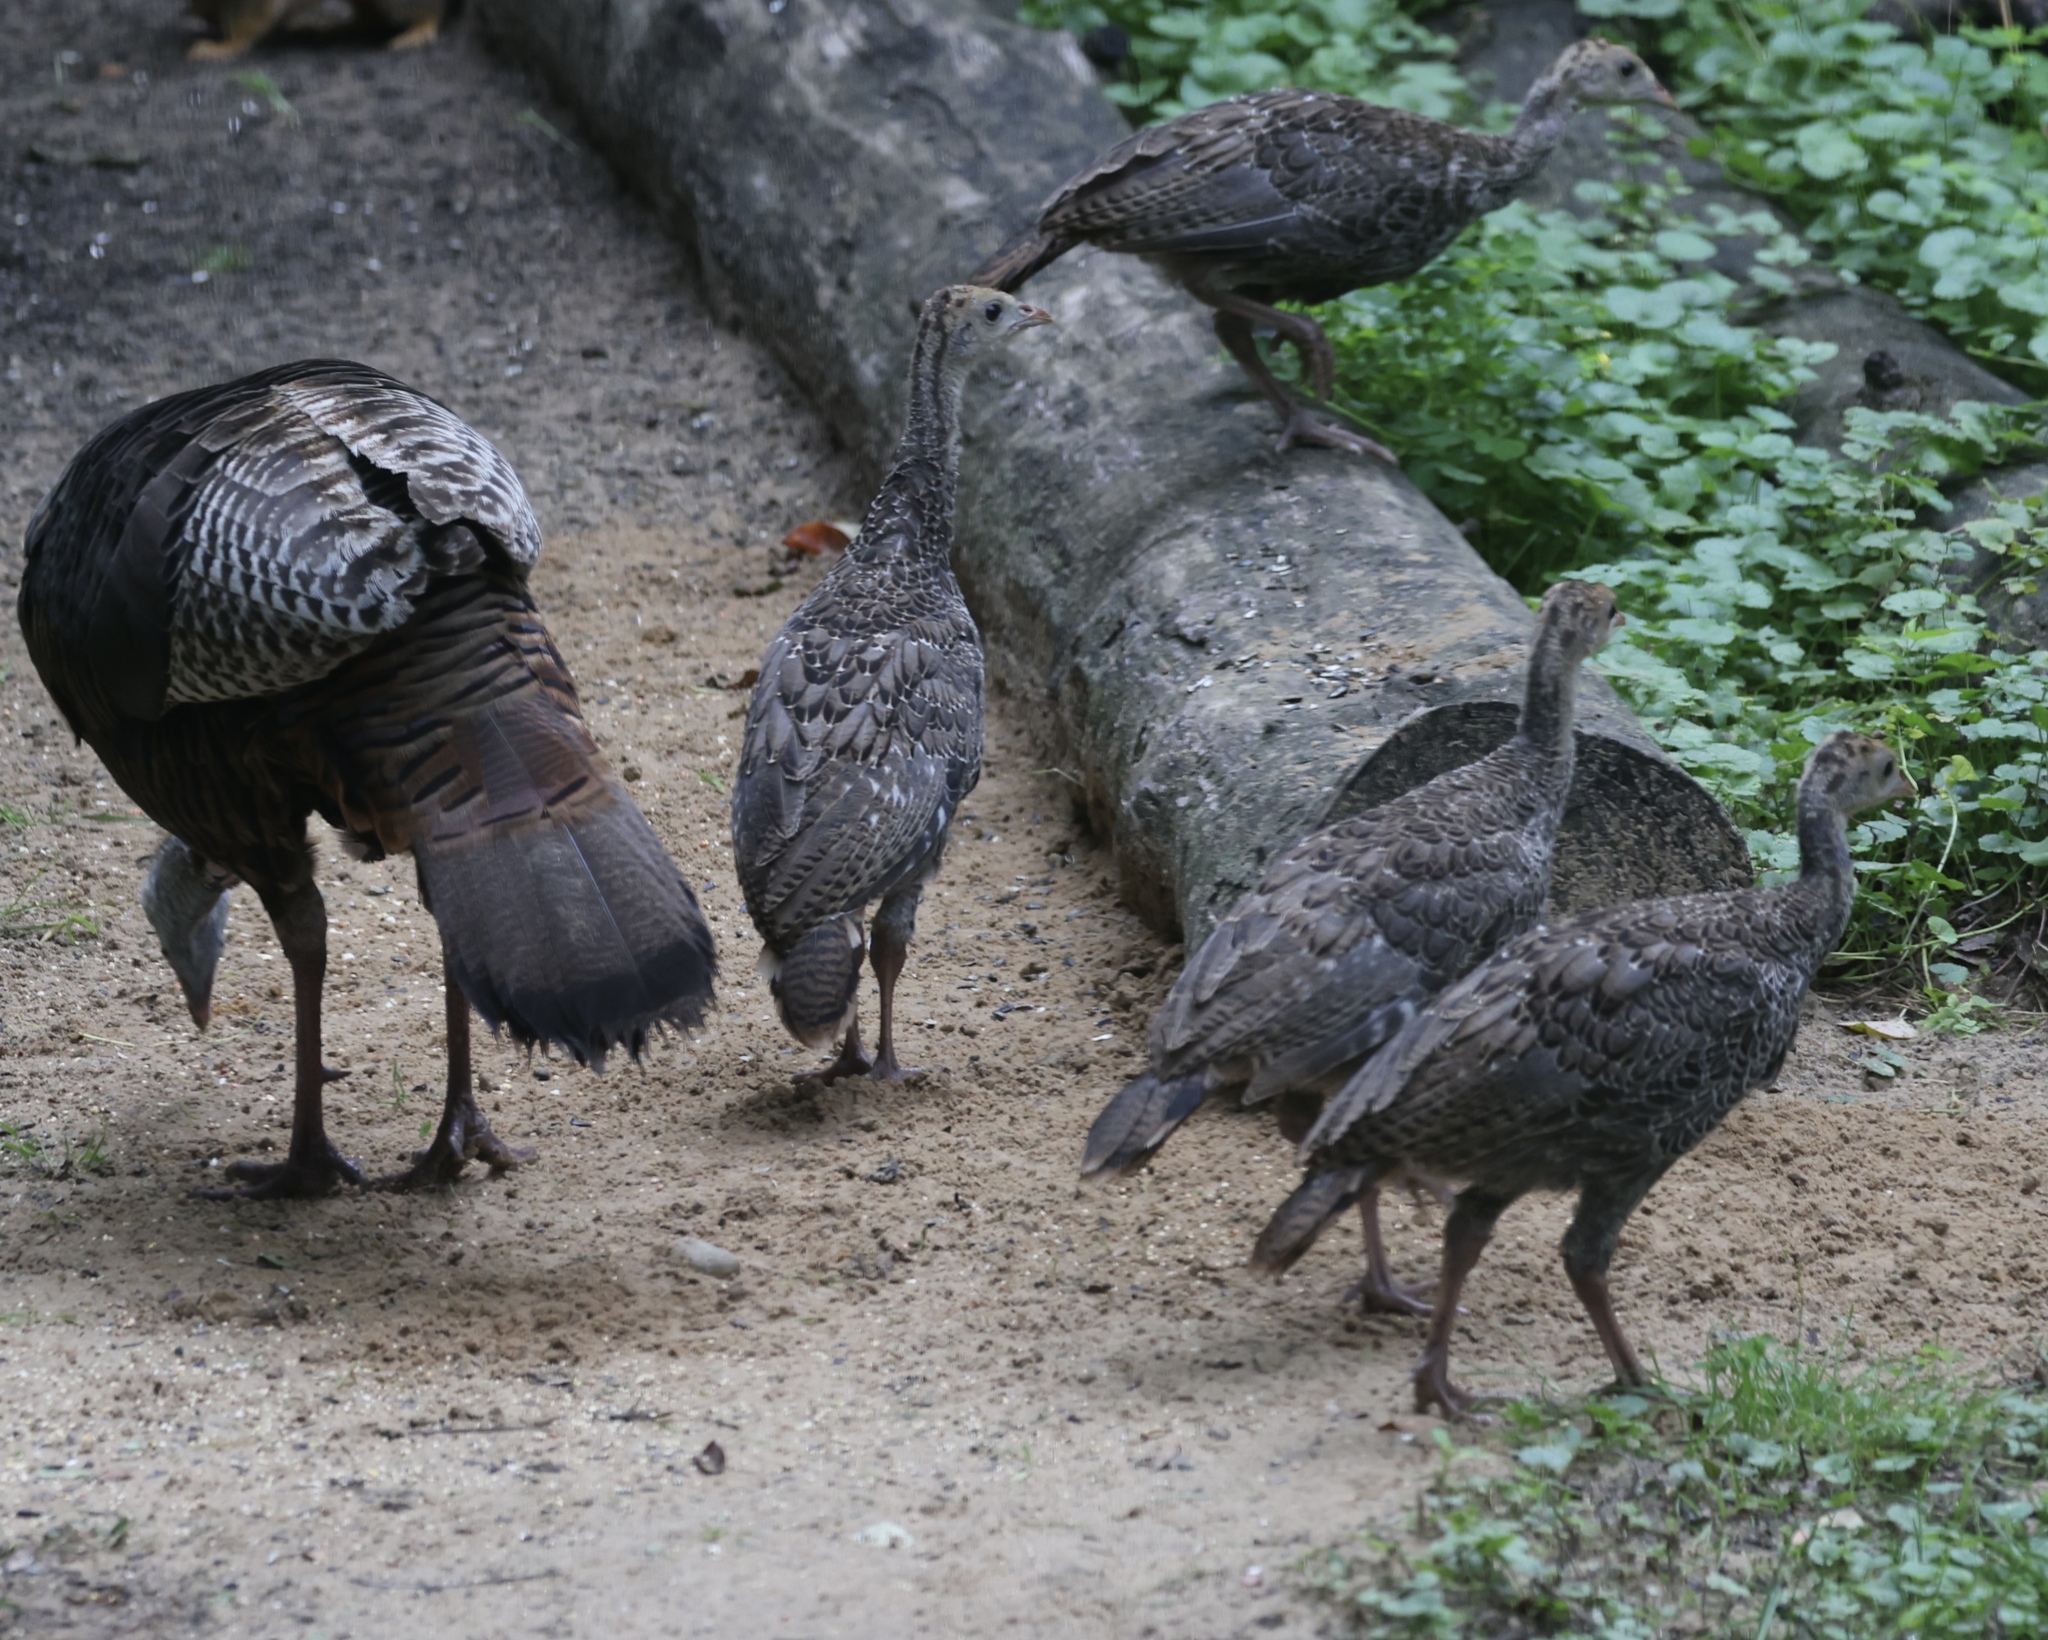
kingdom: Animalia
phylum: Chordata
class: Aves
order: Galliformes
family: Phasianidae
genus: Meleagris
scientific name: Meleagris gallopavo
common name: Wild turkey
